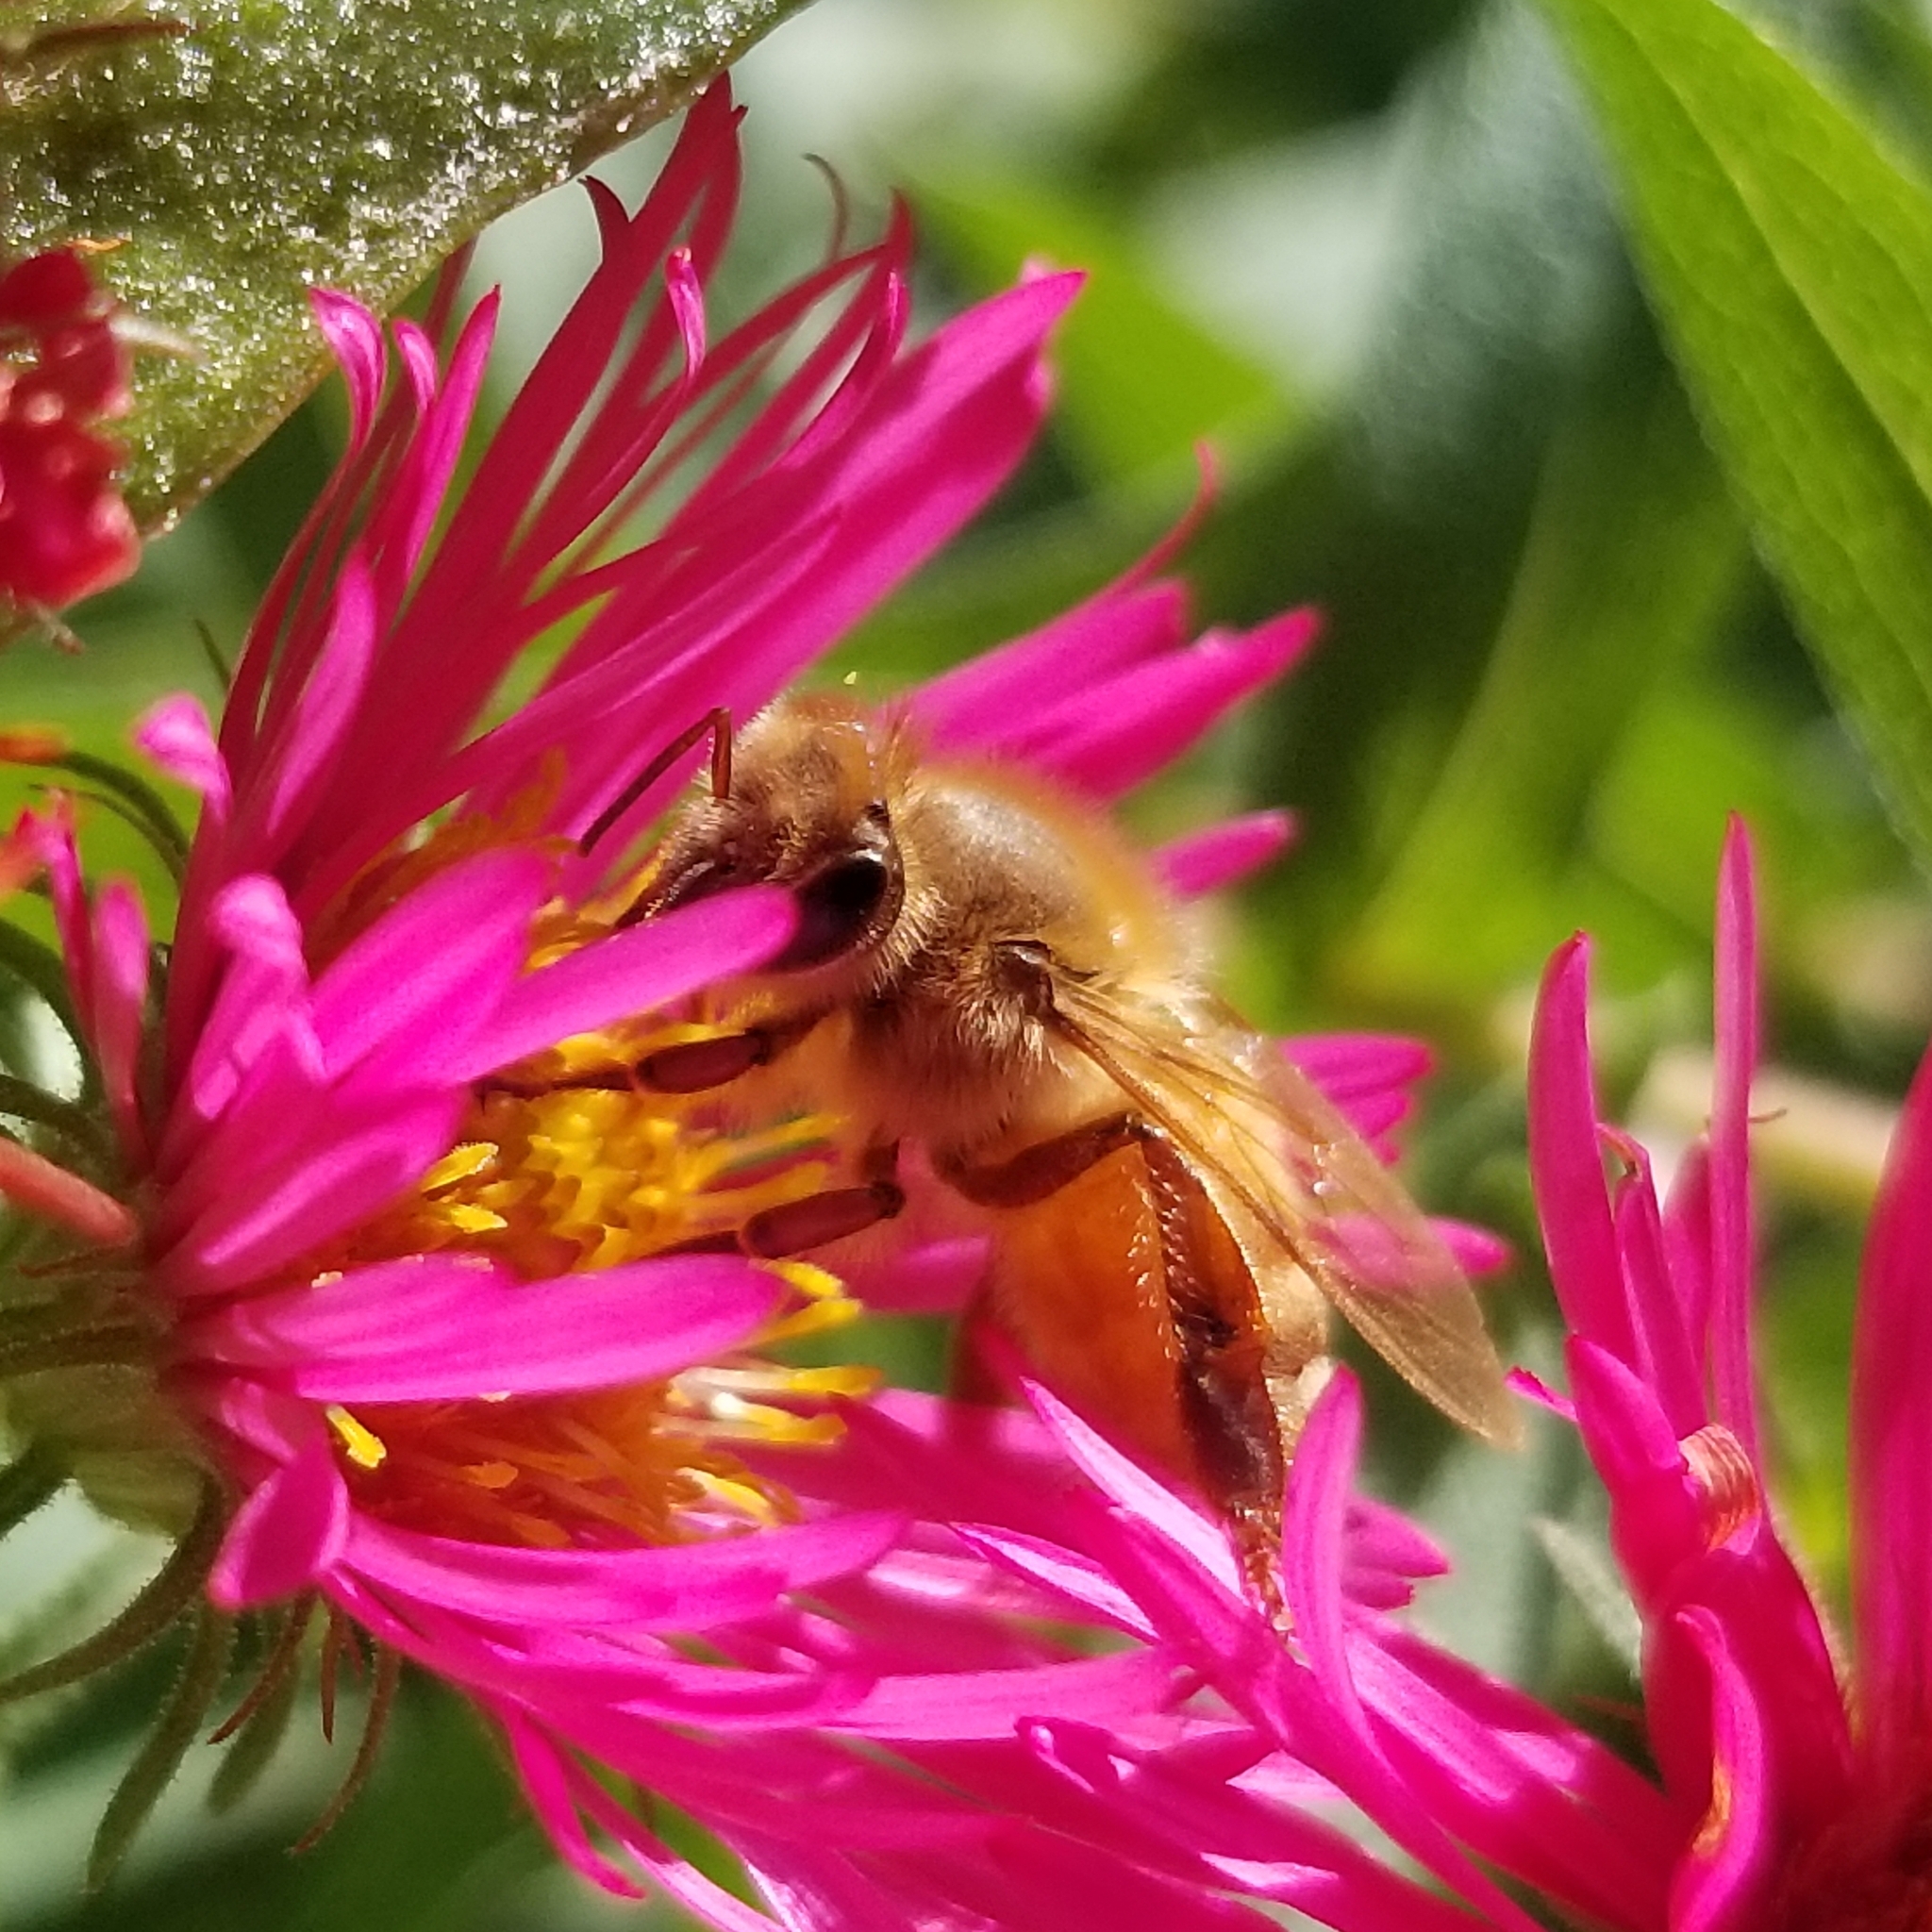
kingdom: Animalia
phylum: Arthropoda
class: Insecta
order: Hymenoptera
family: Apidae
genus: Apis
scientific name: Apis mellifera
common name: Honey bee
